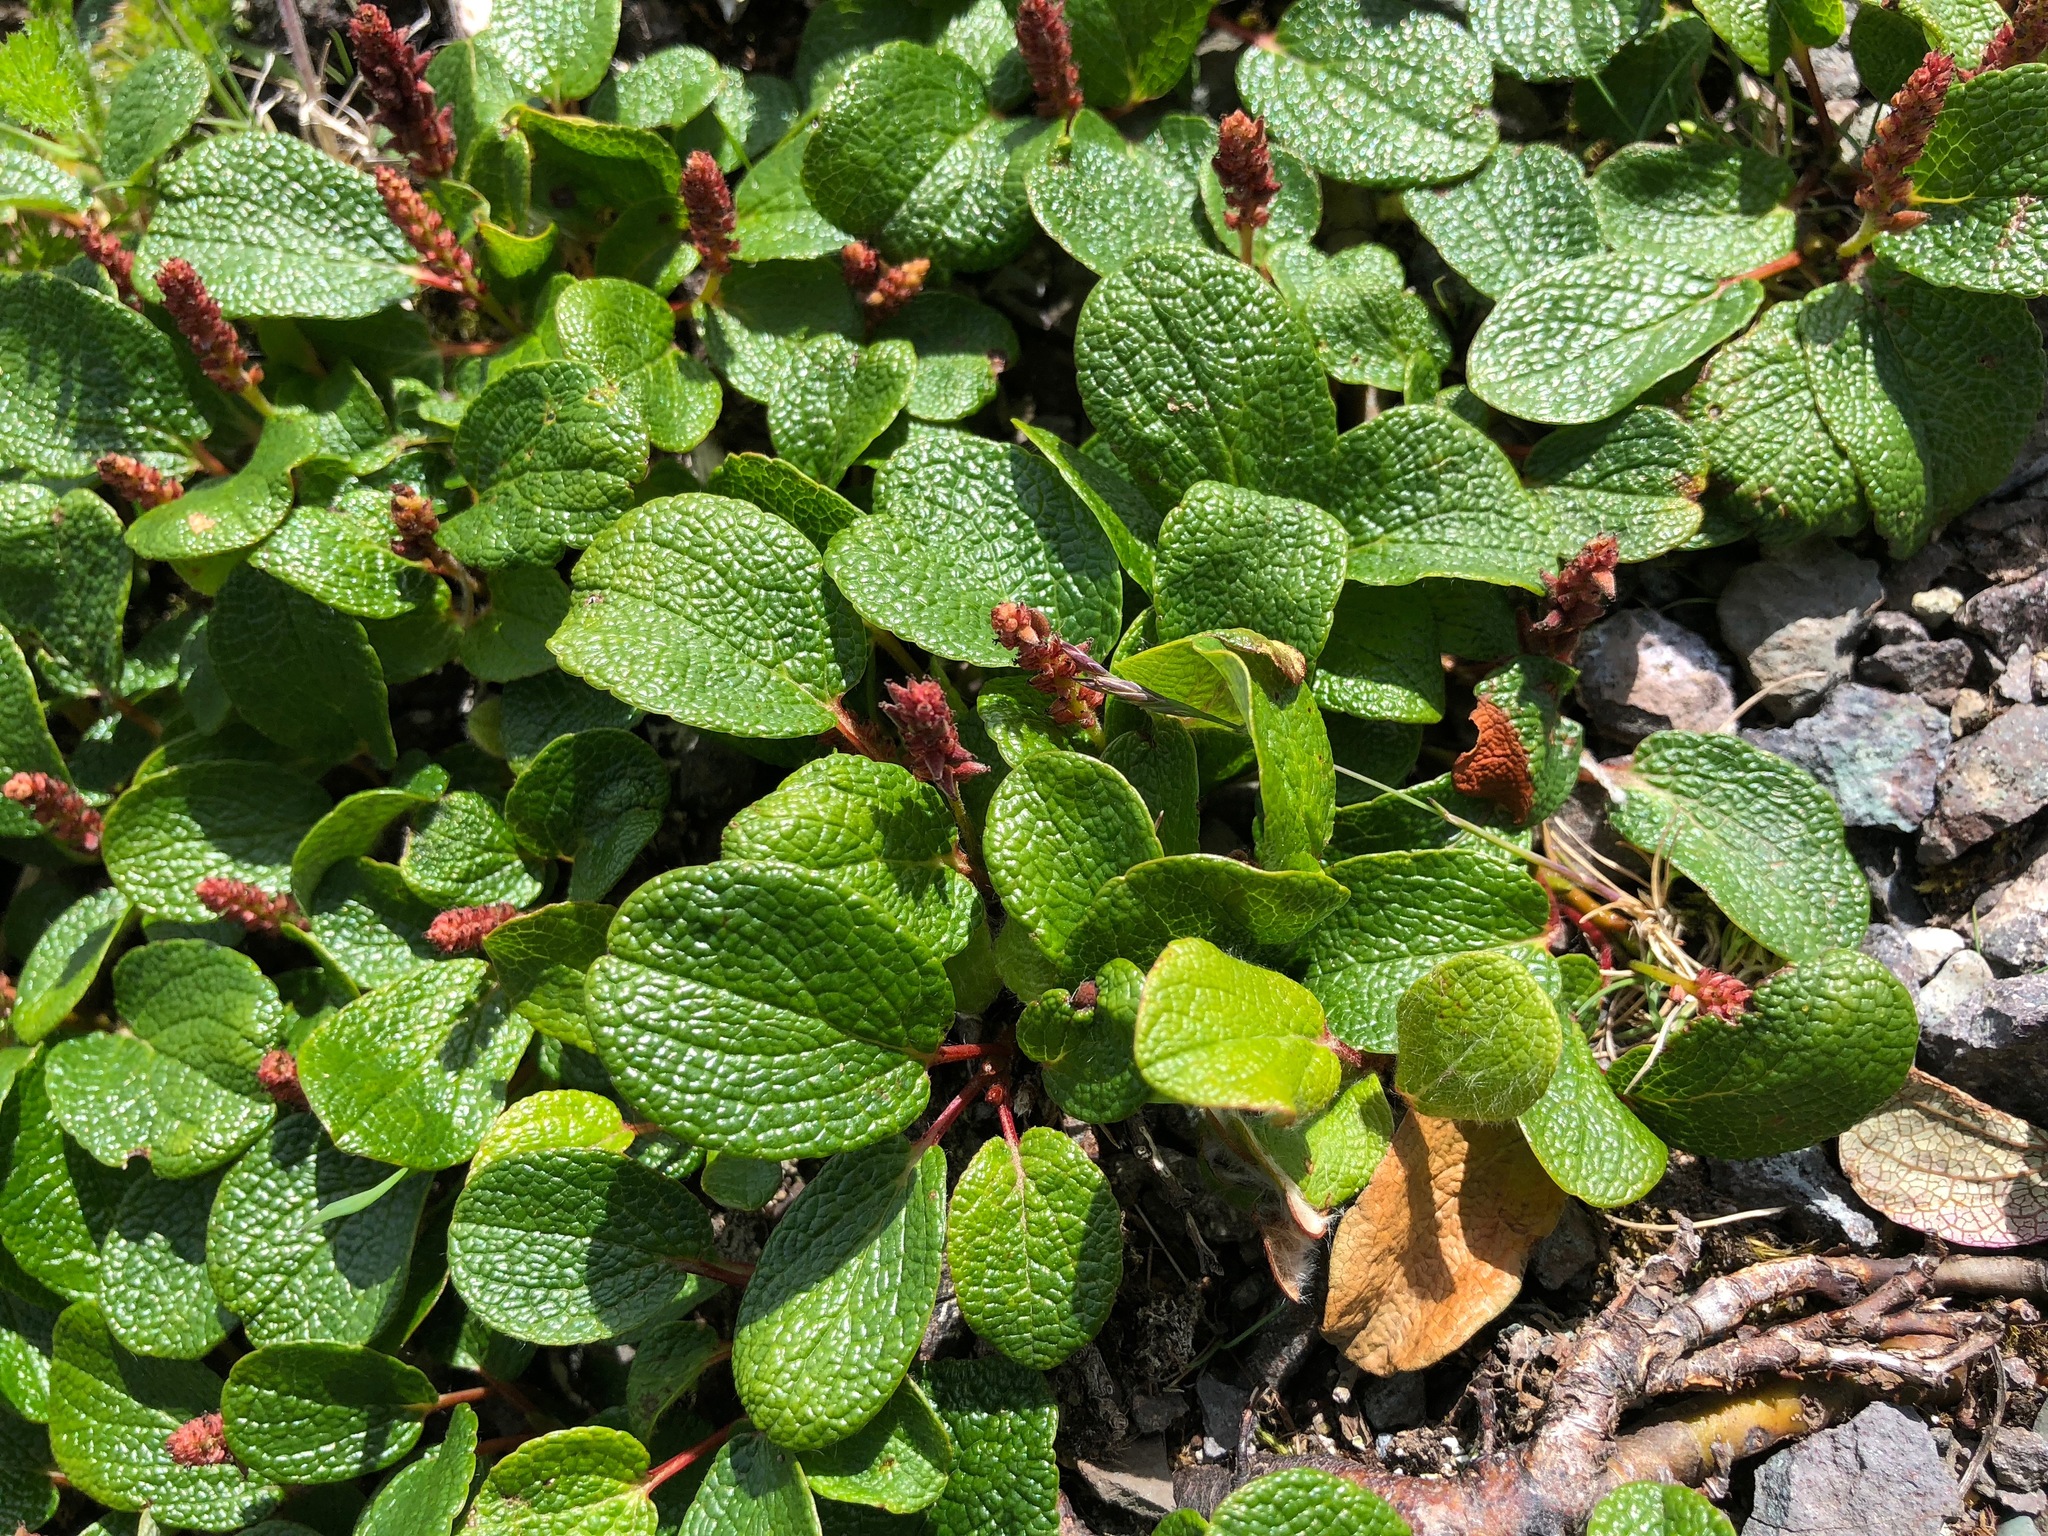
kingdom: Plantae
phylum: Tracheophyta
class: Magnoliopsida
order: Malpighiales
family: Salicaceae
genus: Salix
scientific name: Salix reticulata
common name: Net-leaved willow
